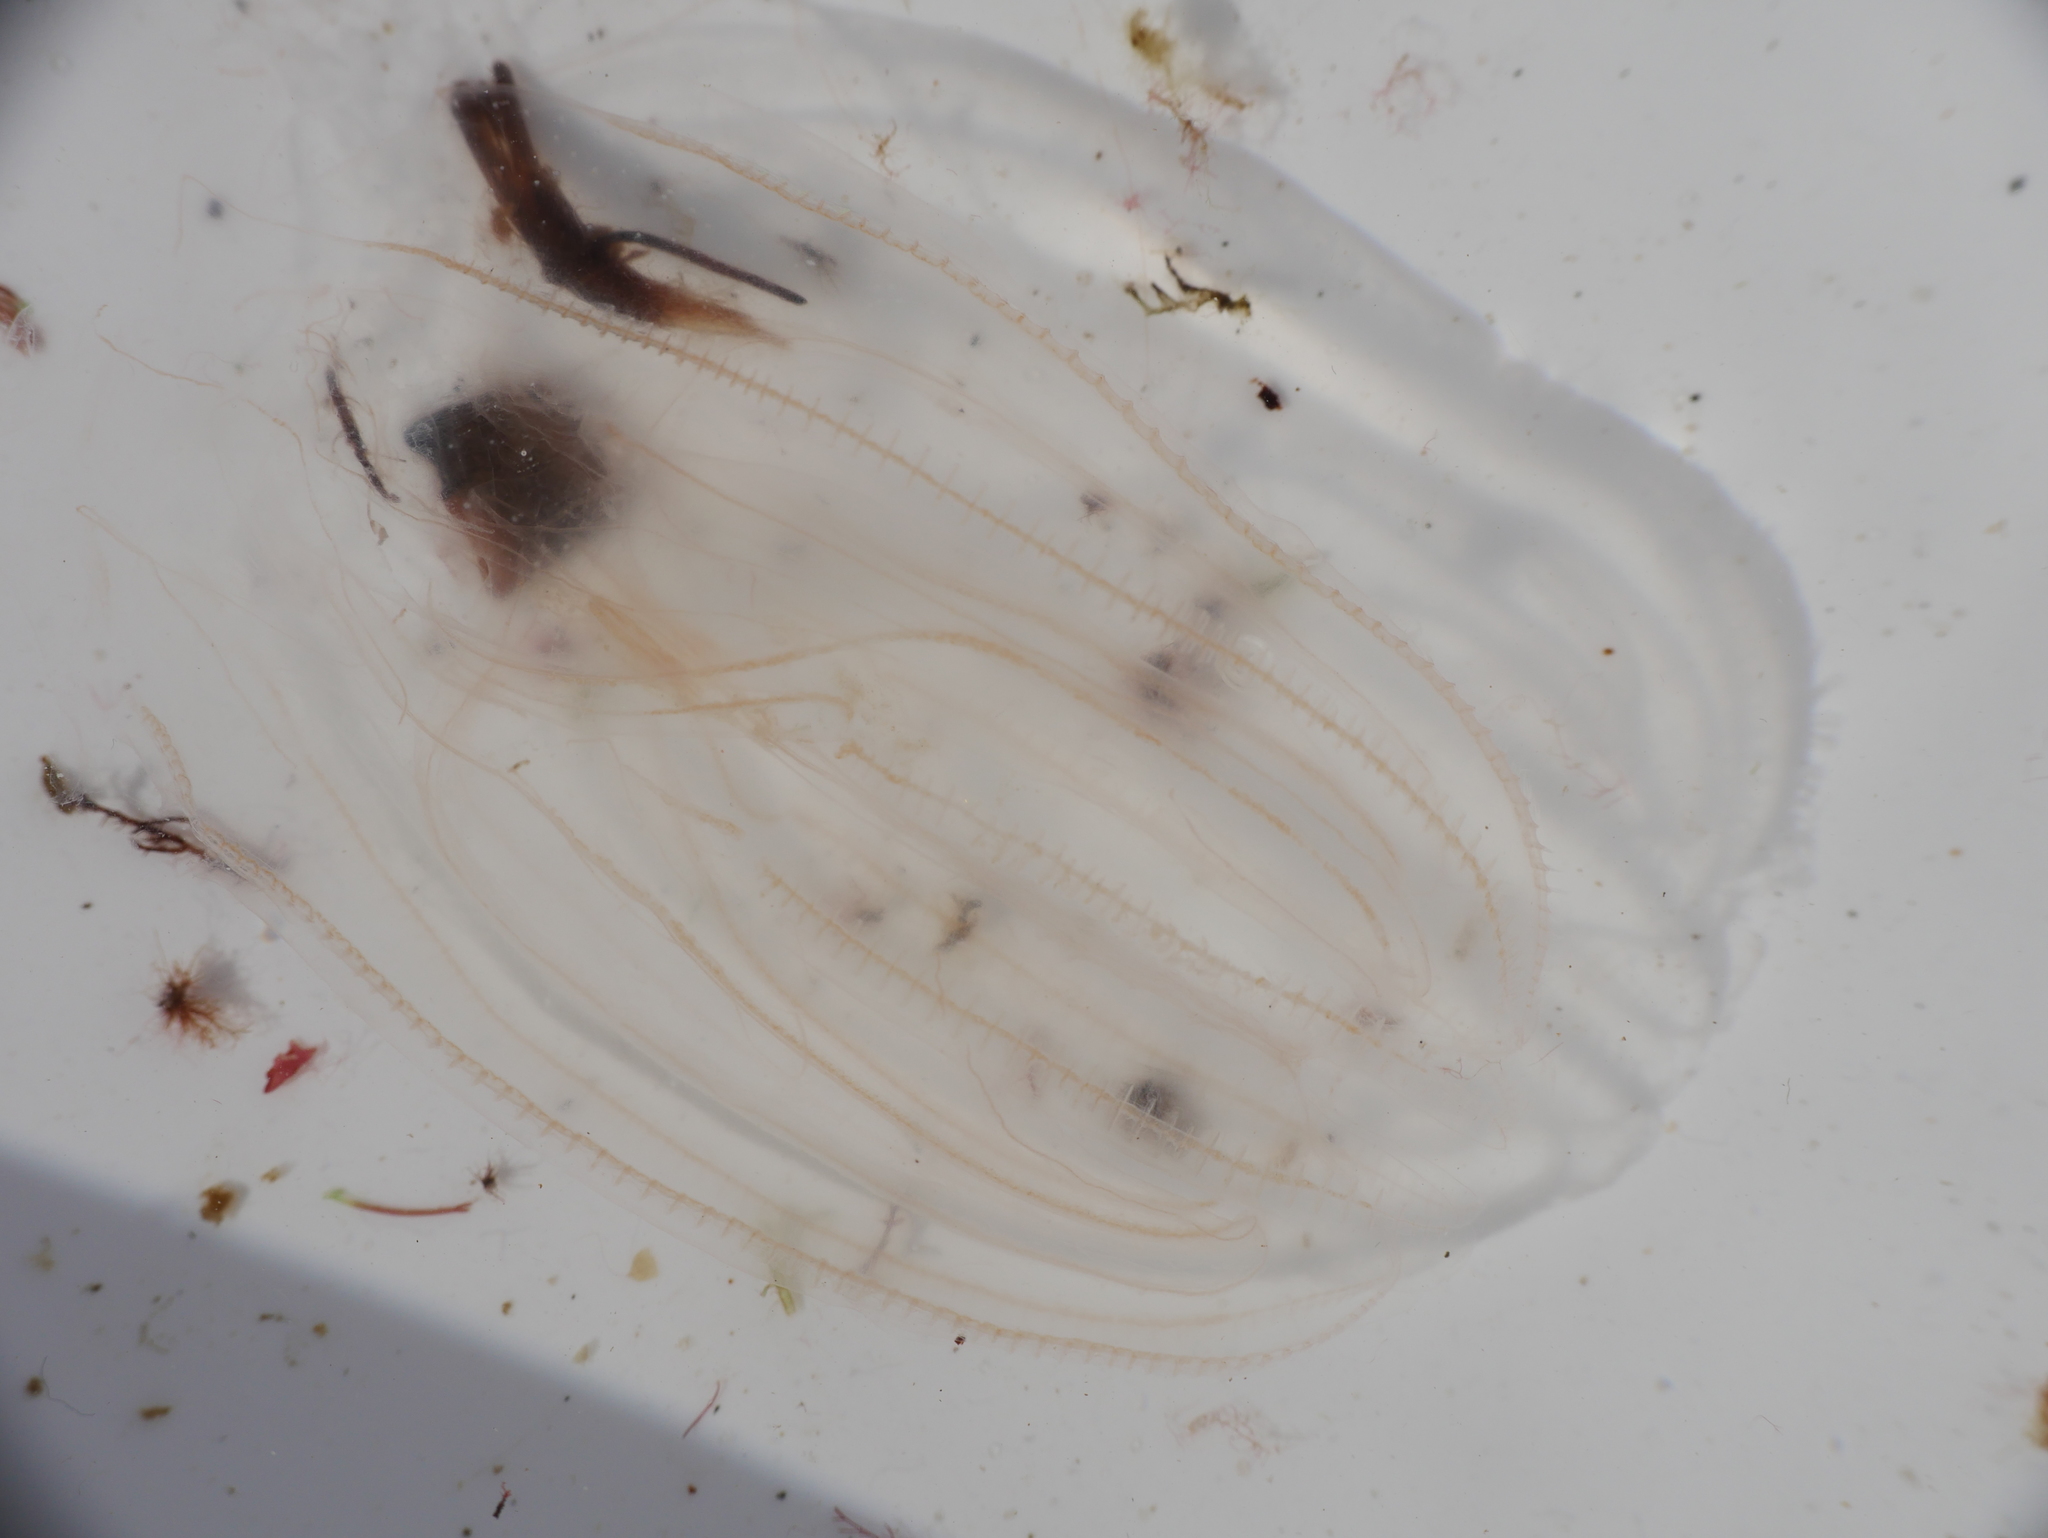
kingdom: Animalia
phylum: Ctenophora
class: Tentaculata
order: Lobata
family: Bolinopsidae
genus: Mnemiopsis
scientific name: Mnemiopsis leidyi
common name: American comb jelly
